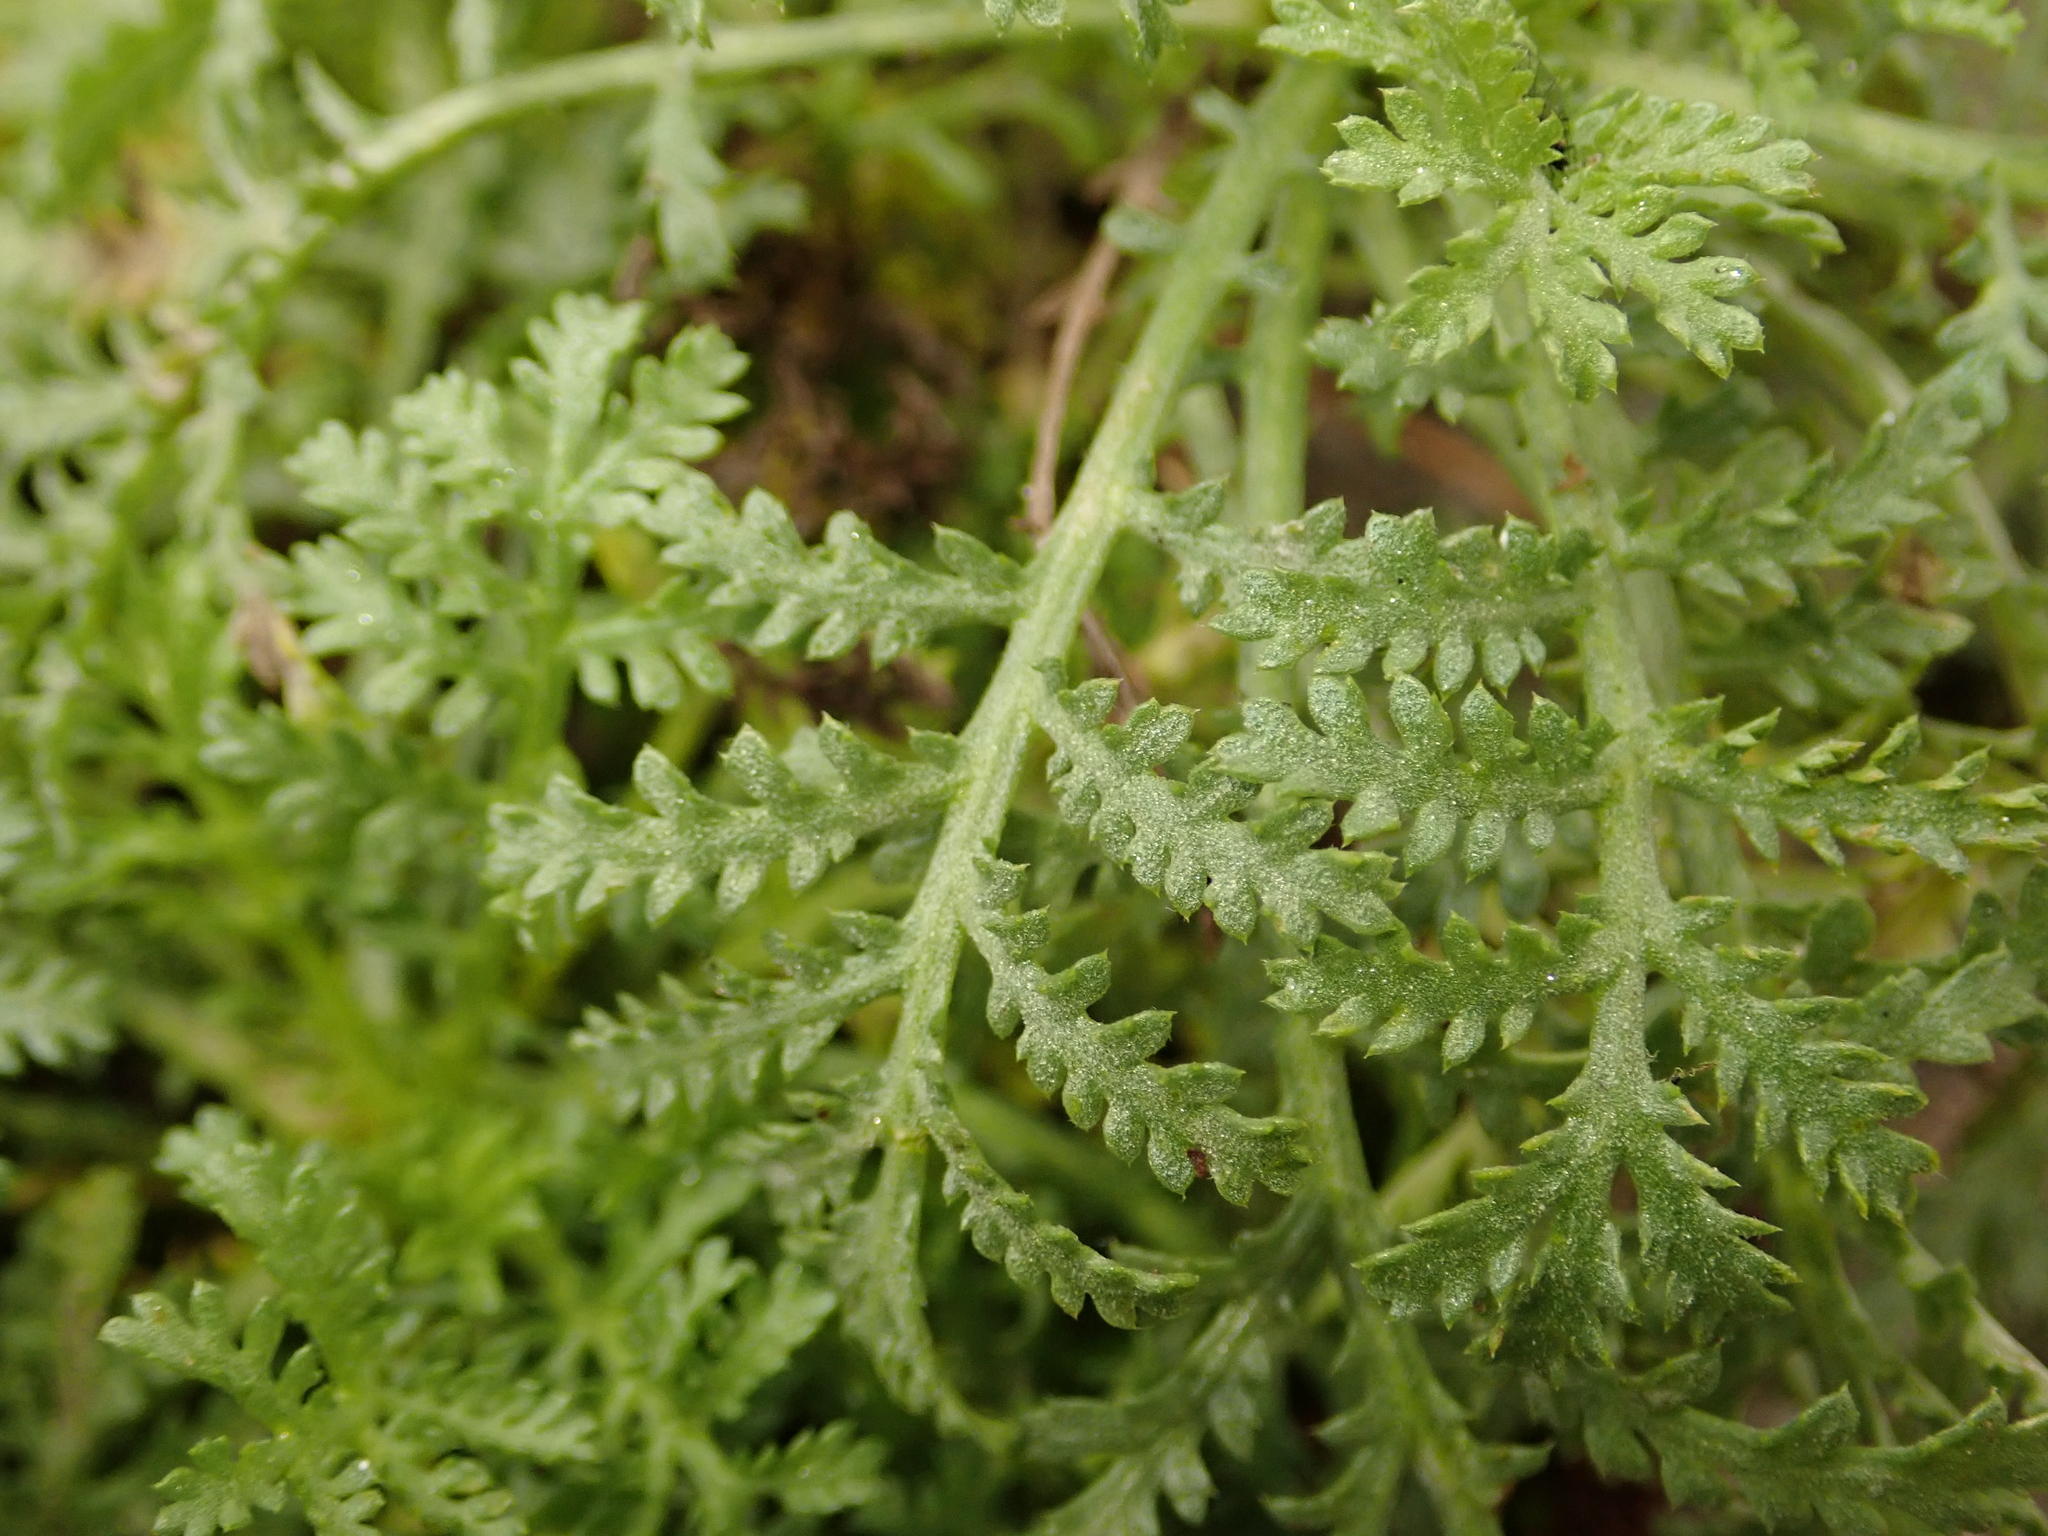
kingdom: Plantae
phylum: Tracheophyta
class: Magnoliopsida
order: Boraginales
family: Hydrophyllaceae
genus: Phacelia
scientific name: Phacelia tanacetifolia
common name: Phacelia
